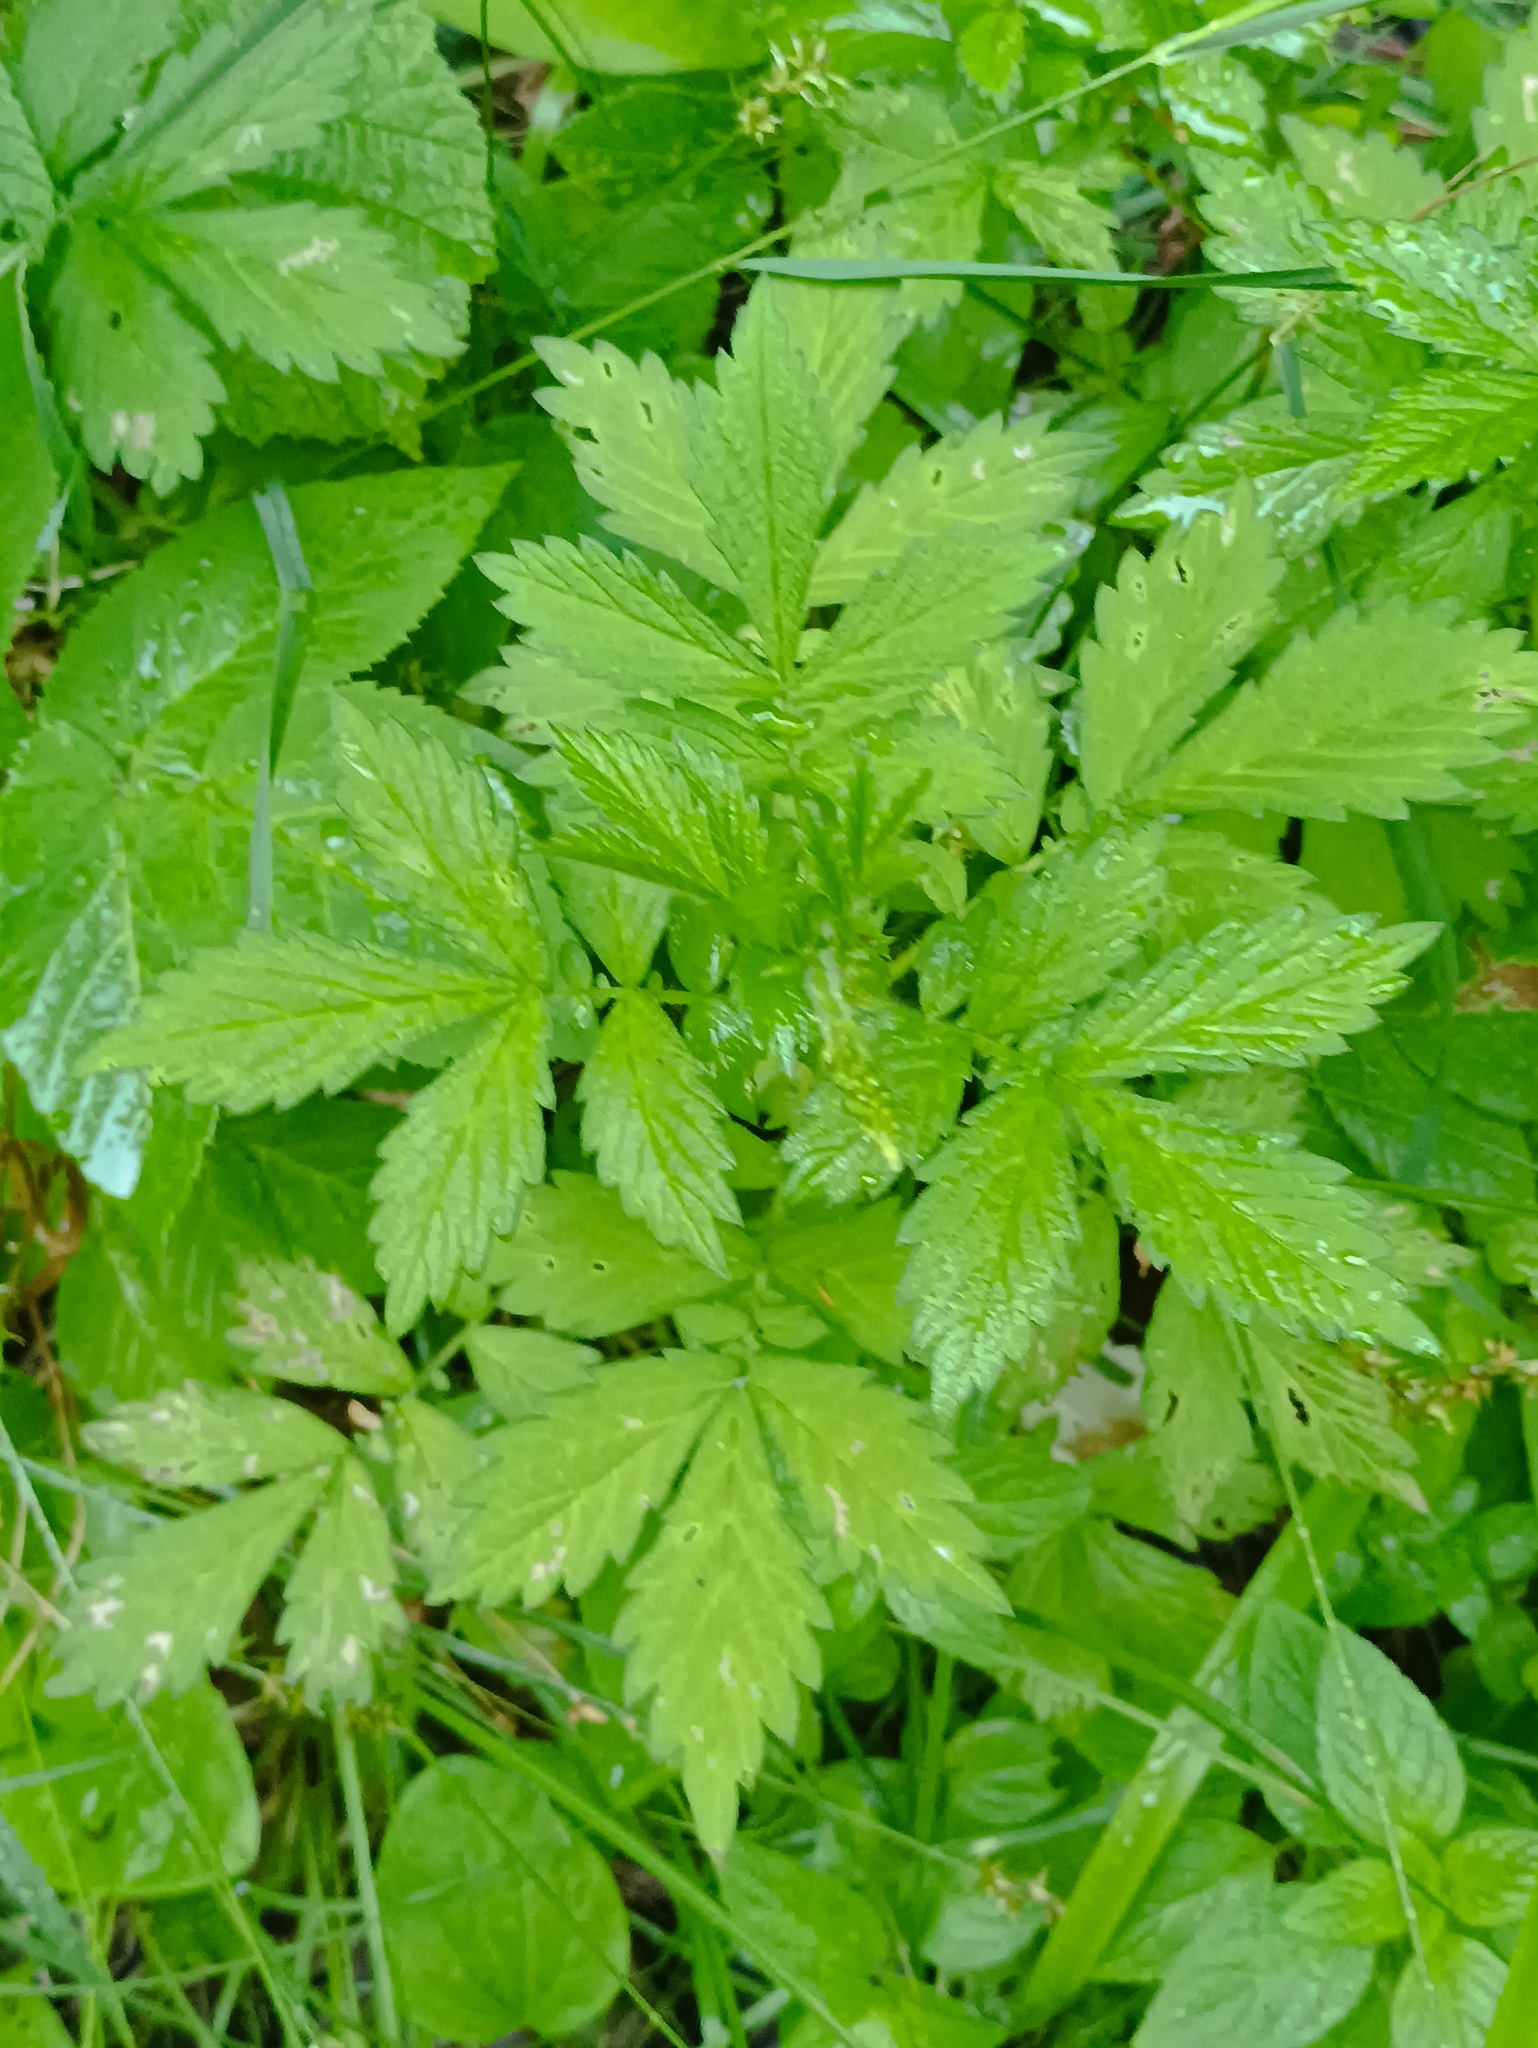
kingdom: Plantae
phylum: Tracheophyta
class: Magnoliopsida
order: Rosales
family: Rosaceae
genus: Agrimonia
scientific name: Agrimonia pilosa
